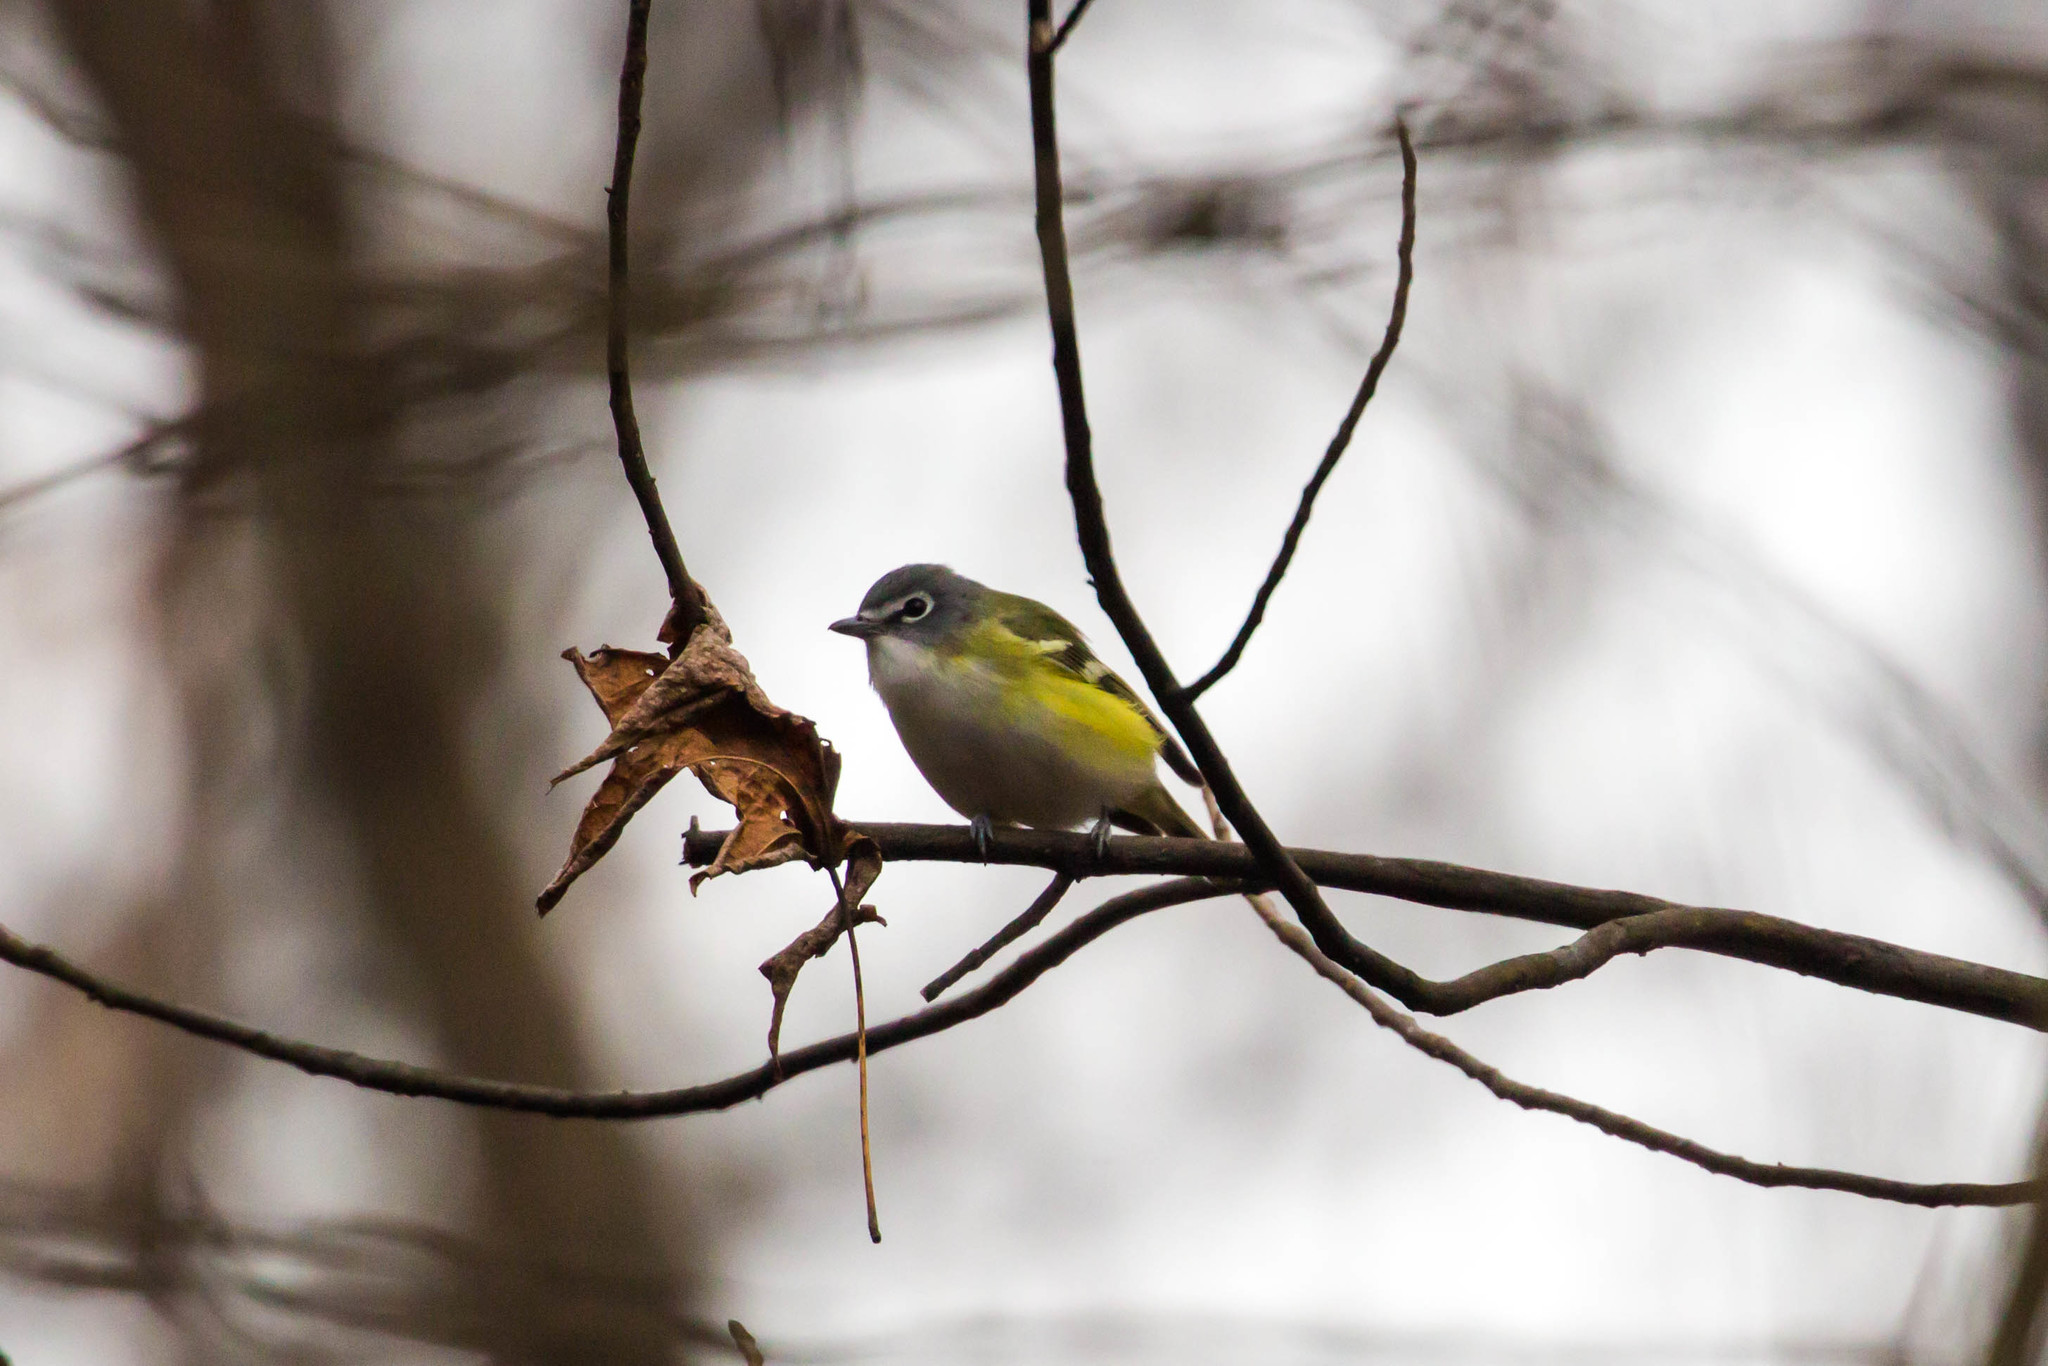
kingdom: Animalia
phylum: Chordata
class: Aves
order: Passeriformes
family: Vireonidae
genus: Vireo
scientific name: Vireo solitarius
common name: Blue-headed vireo
